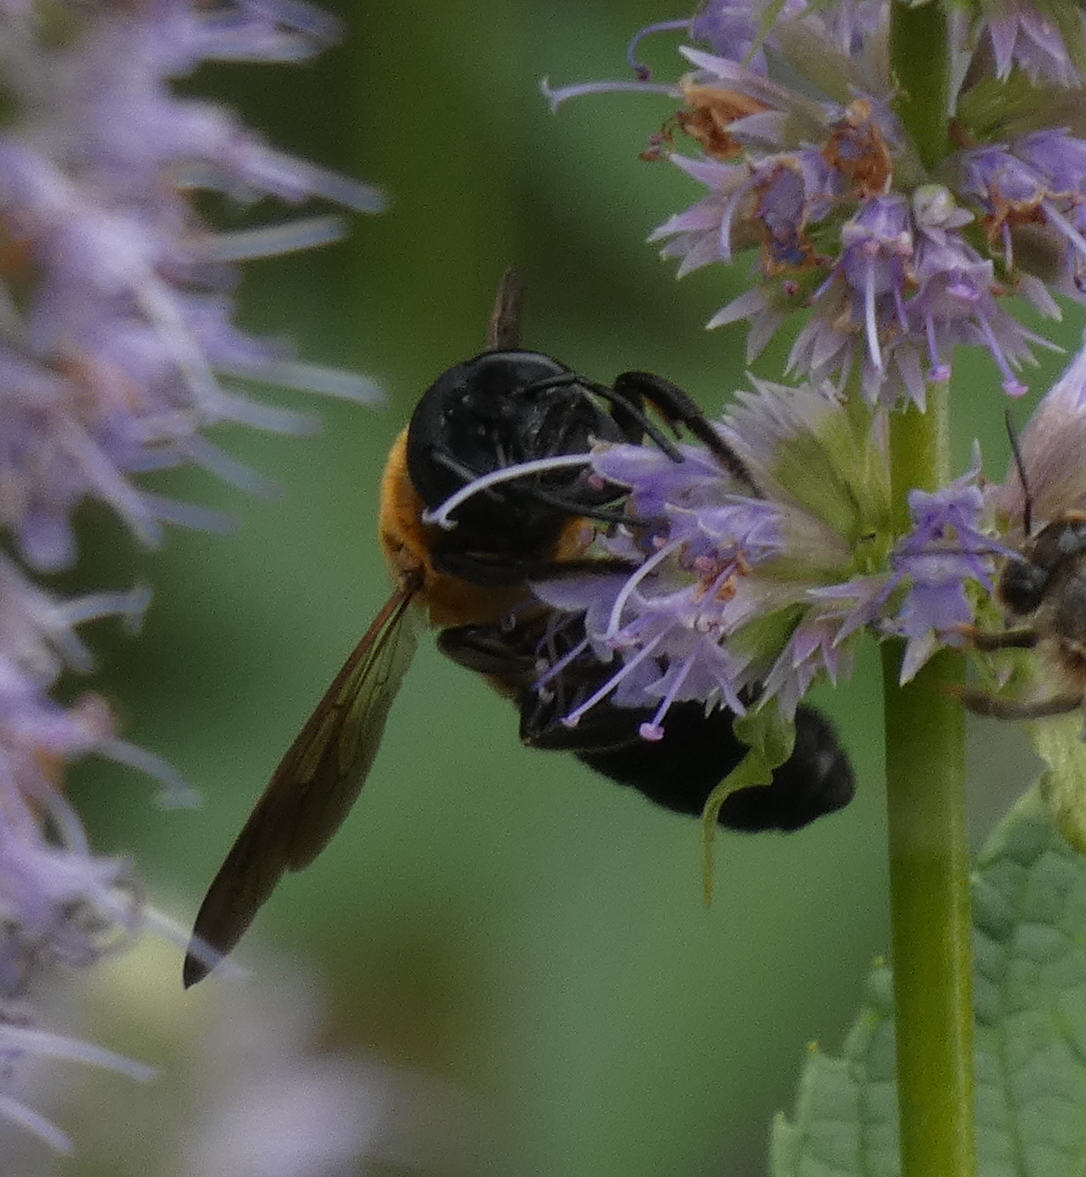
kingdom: Animalia
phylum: Arthropoda
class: Insecta
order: Hymenoptera
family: Megachilidae
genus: Megachile
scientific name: Megachile sculpturalis
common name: Sculptured resin bee
